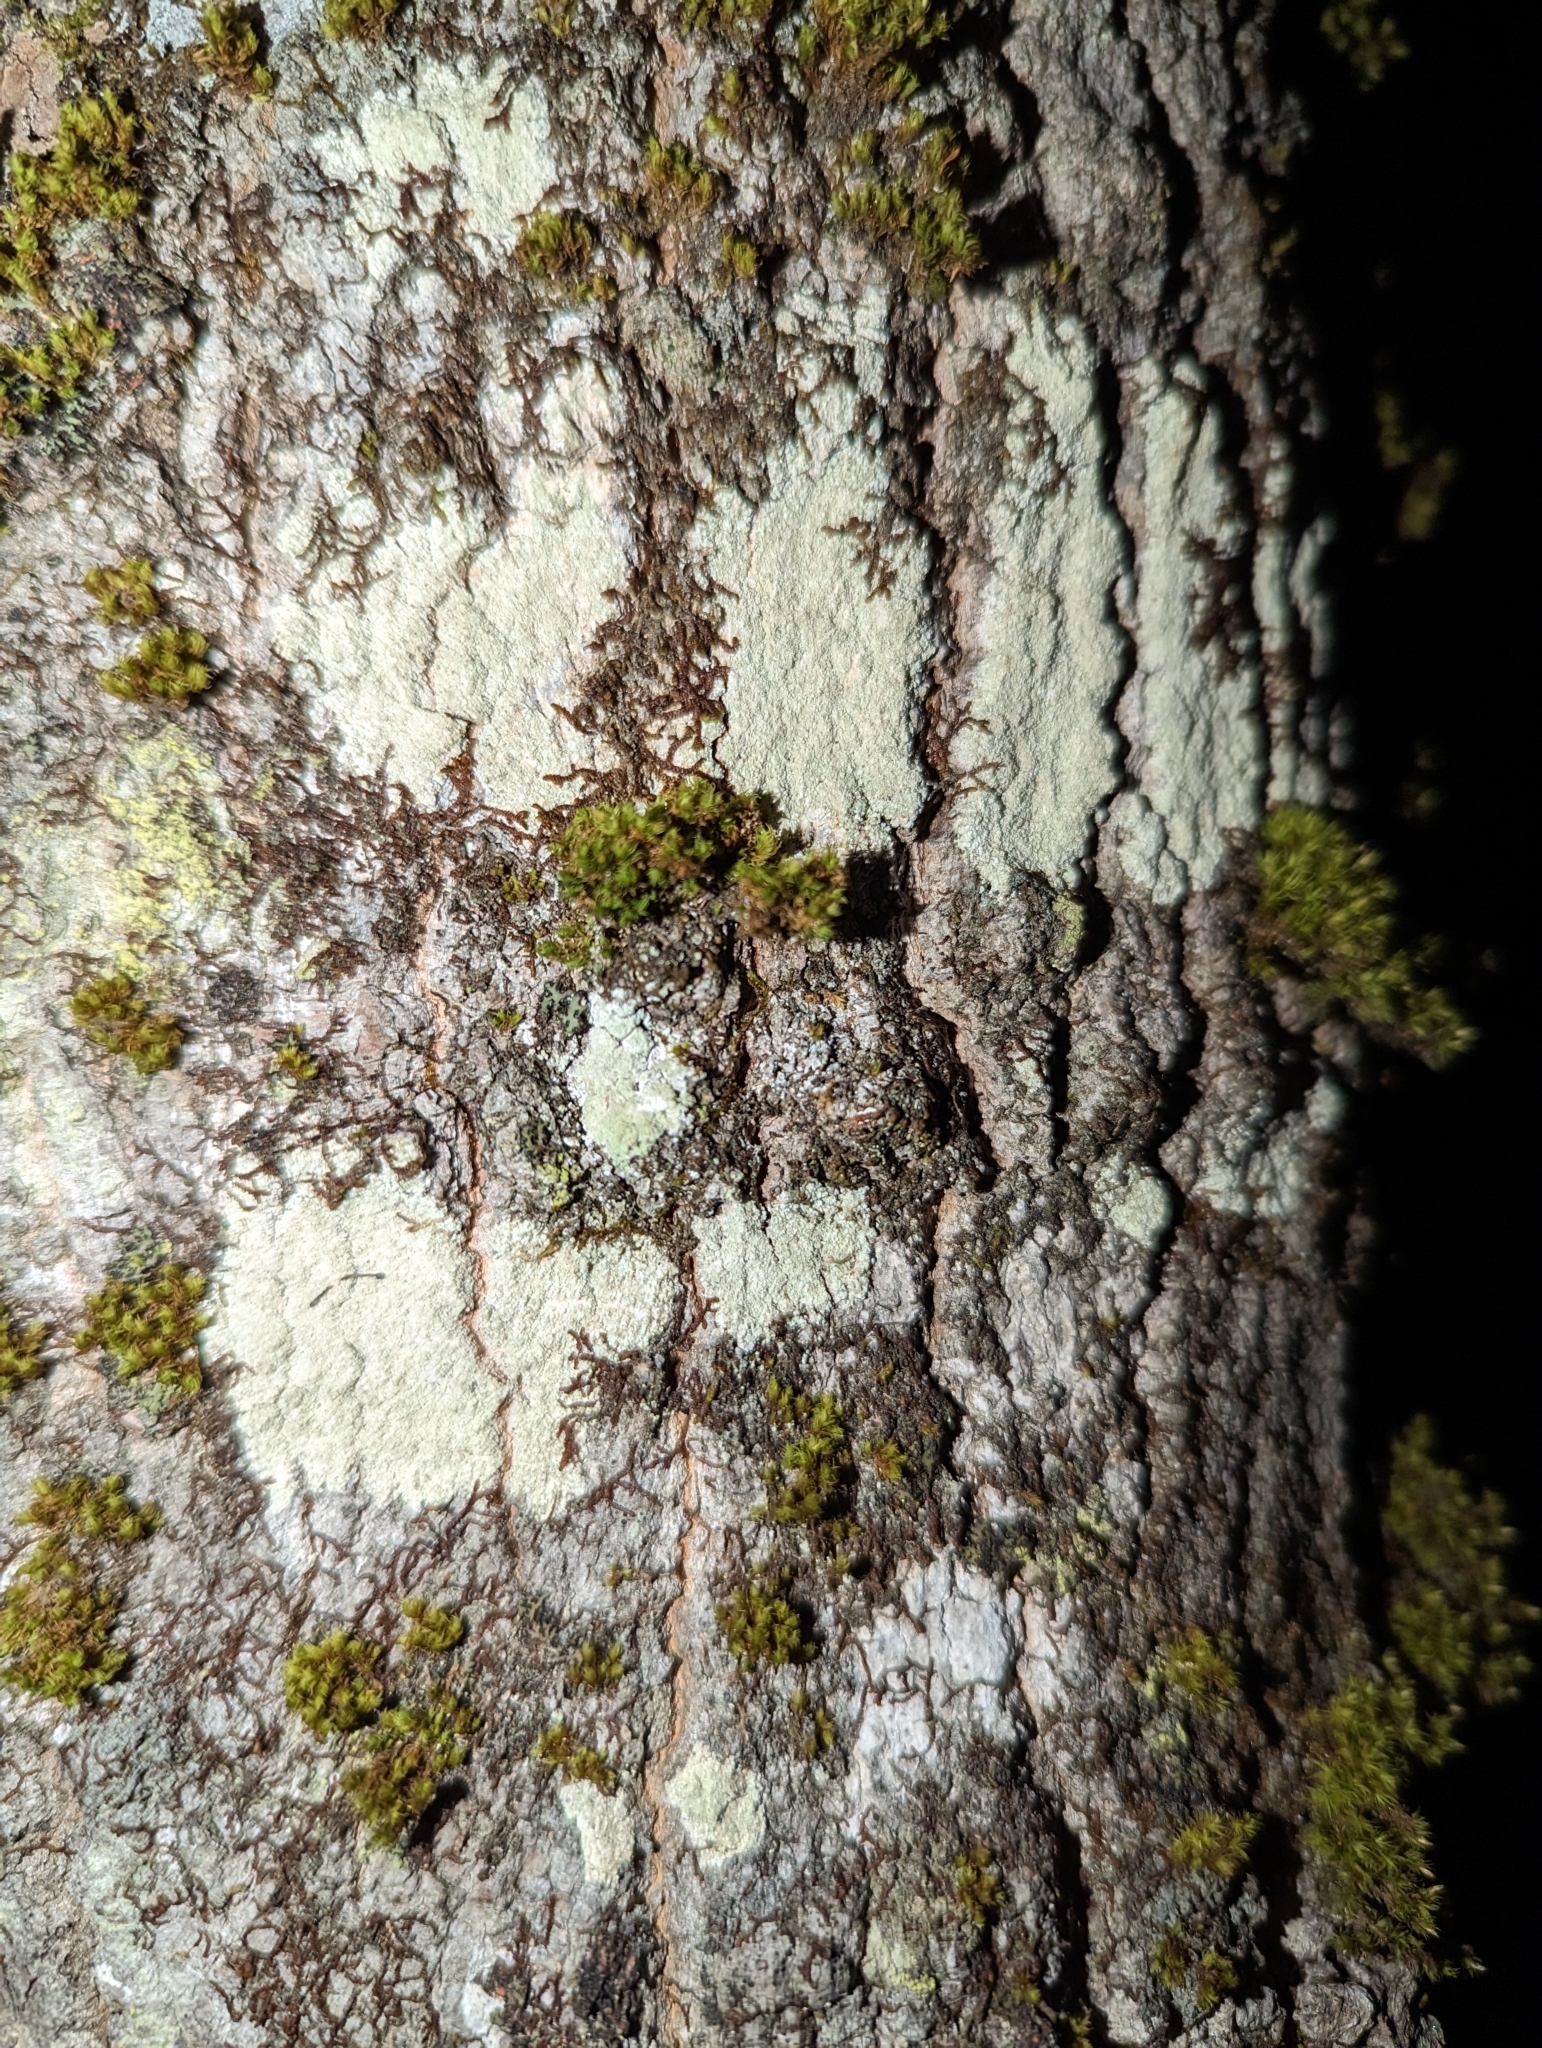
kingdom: Plantae
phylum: Bryophyta
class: Bryopsida
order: Orthotrichales
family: Orthotrichaceae
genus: Ulota
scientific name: Ulota crispa
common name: Crisped pincushion moss
